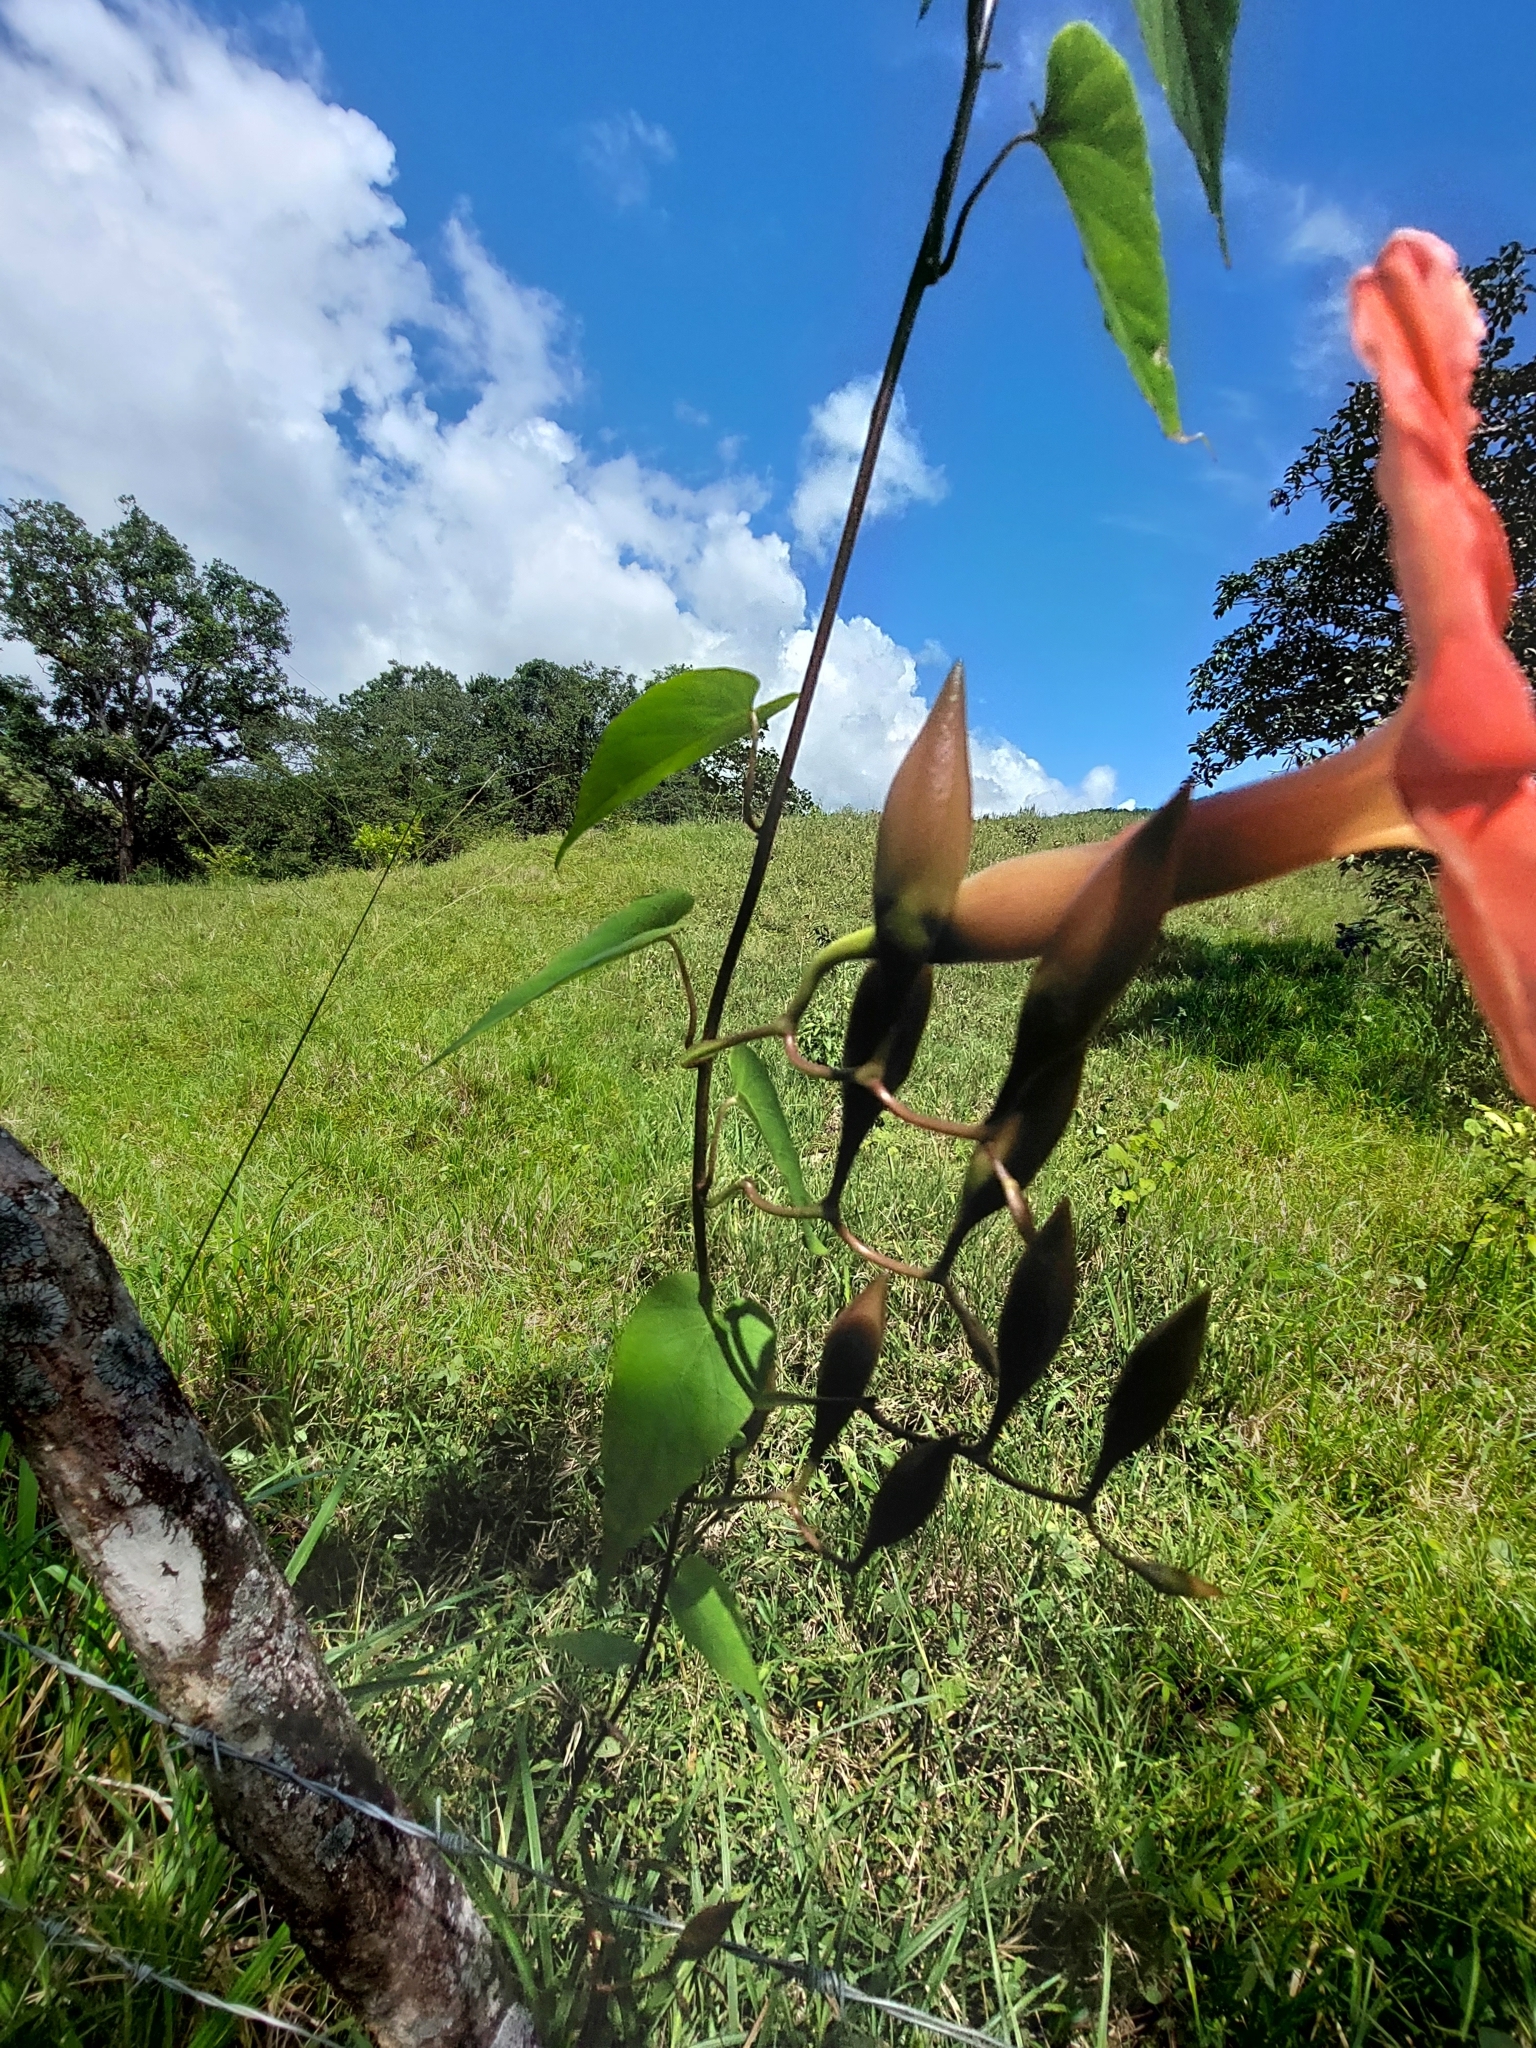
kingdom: Plantae
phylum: Tracheophyta
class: Magnoliopsida
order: Solanales
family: Convolvulaceae
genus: Operculina
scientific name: Operculina pteripes
